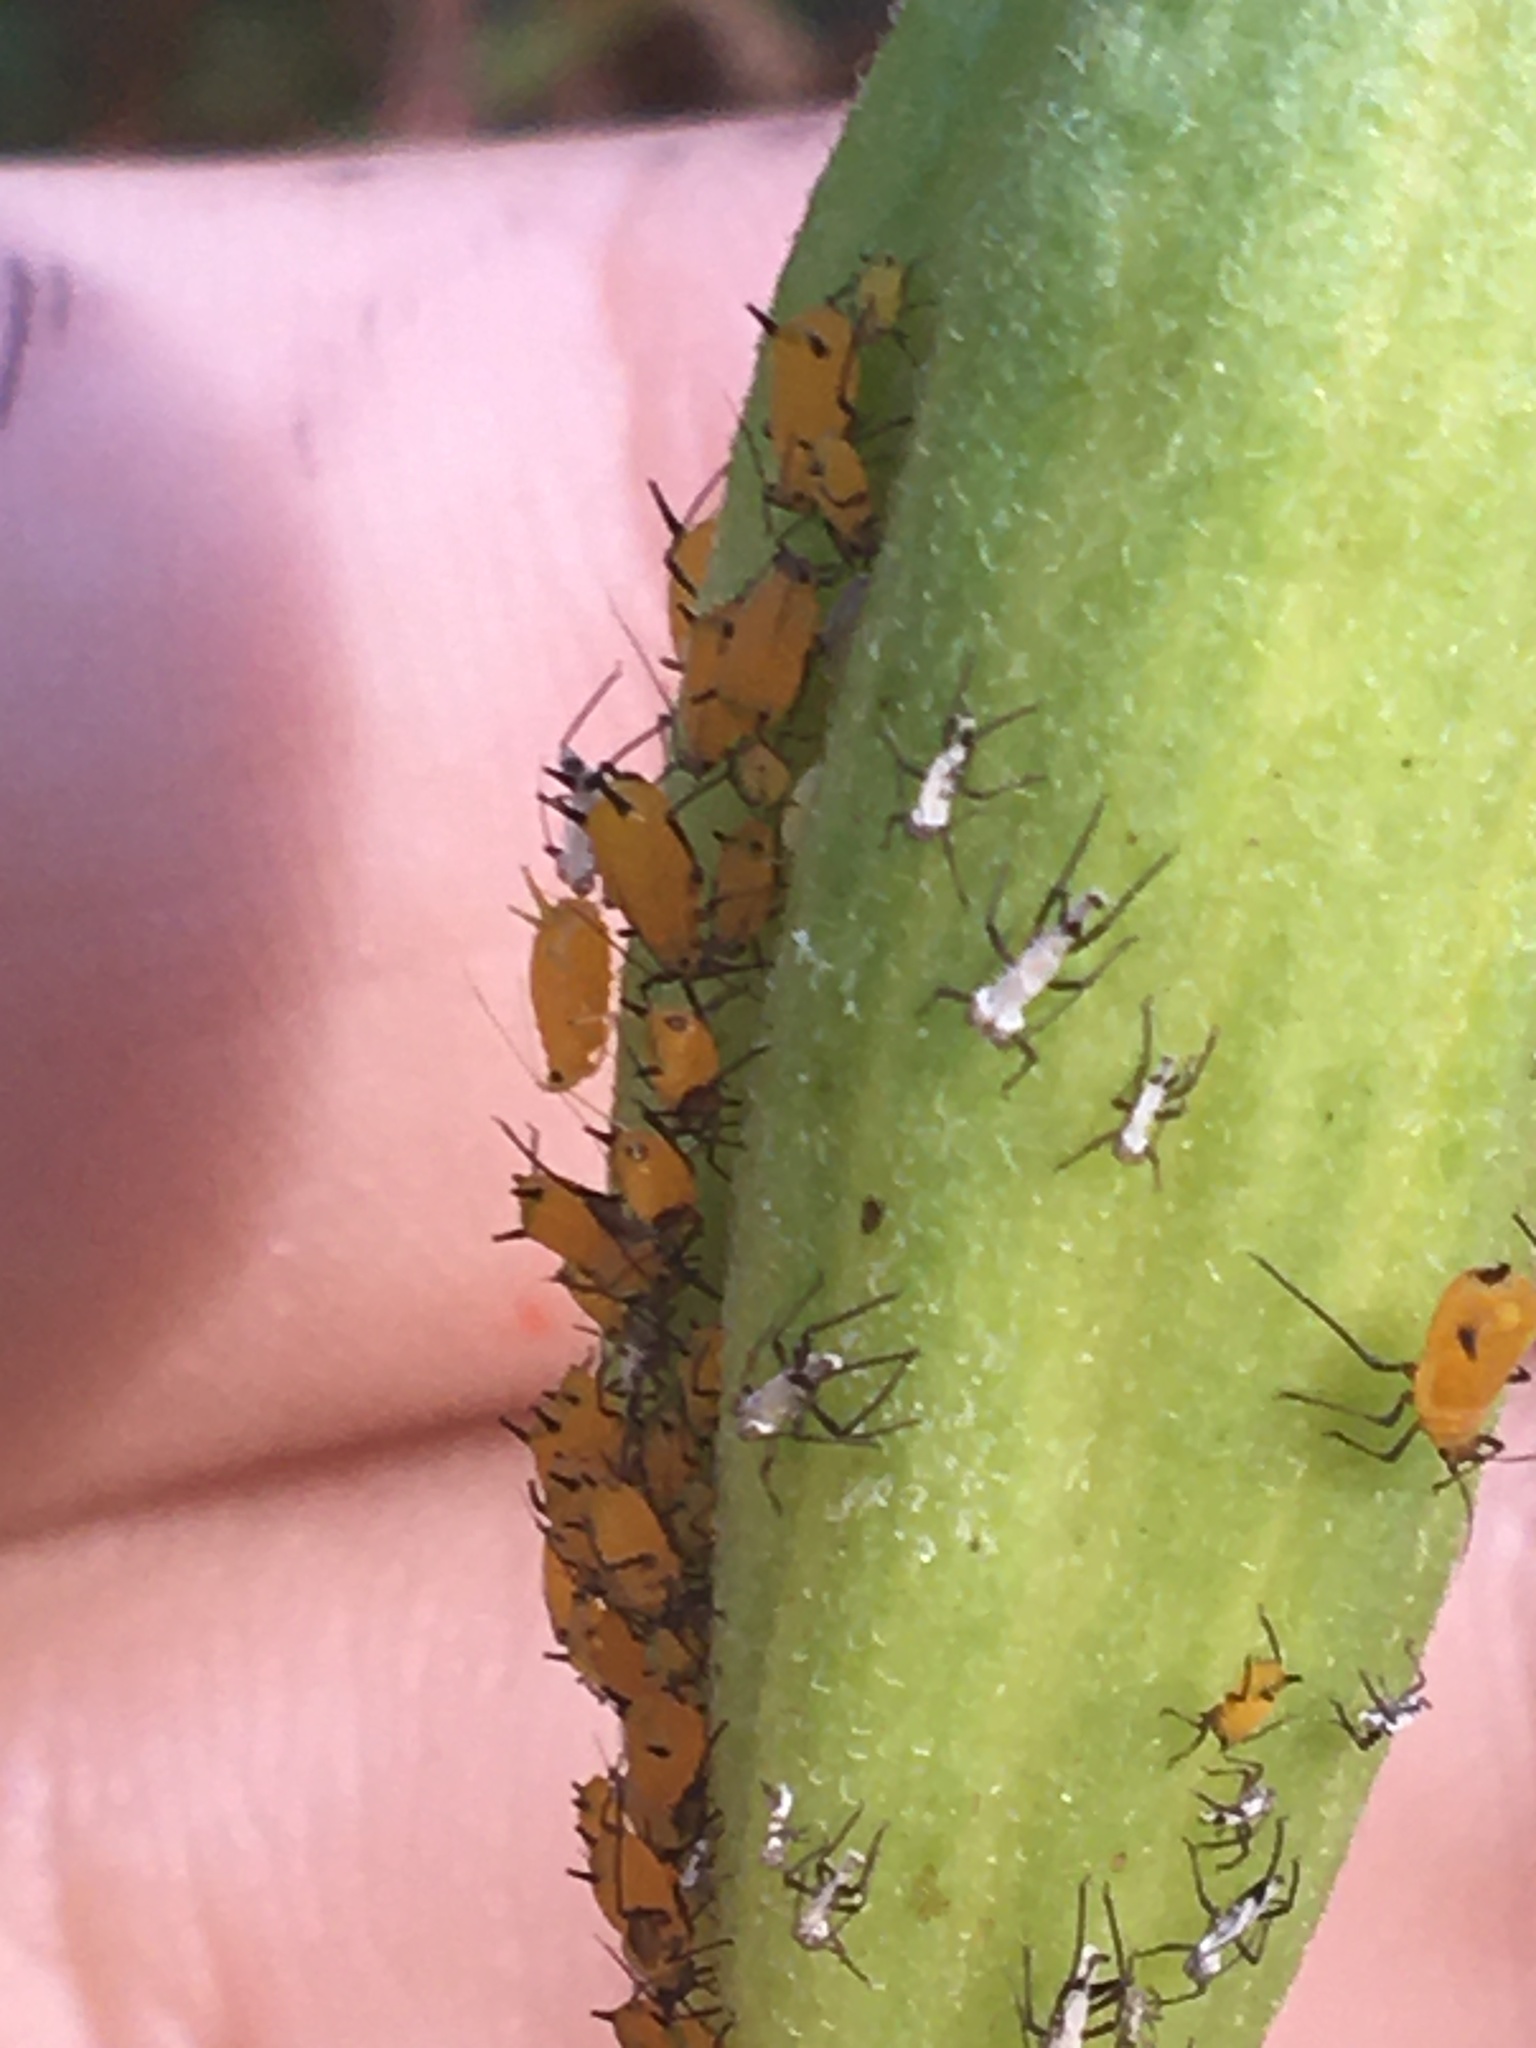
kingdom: Animalia
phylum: Arthropoda
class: Insecta
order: Hemiptera
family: Aphididae
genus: Aphis
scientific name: Aphis nerii
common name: Oleander aphid
